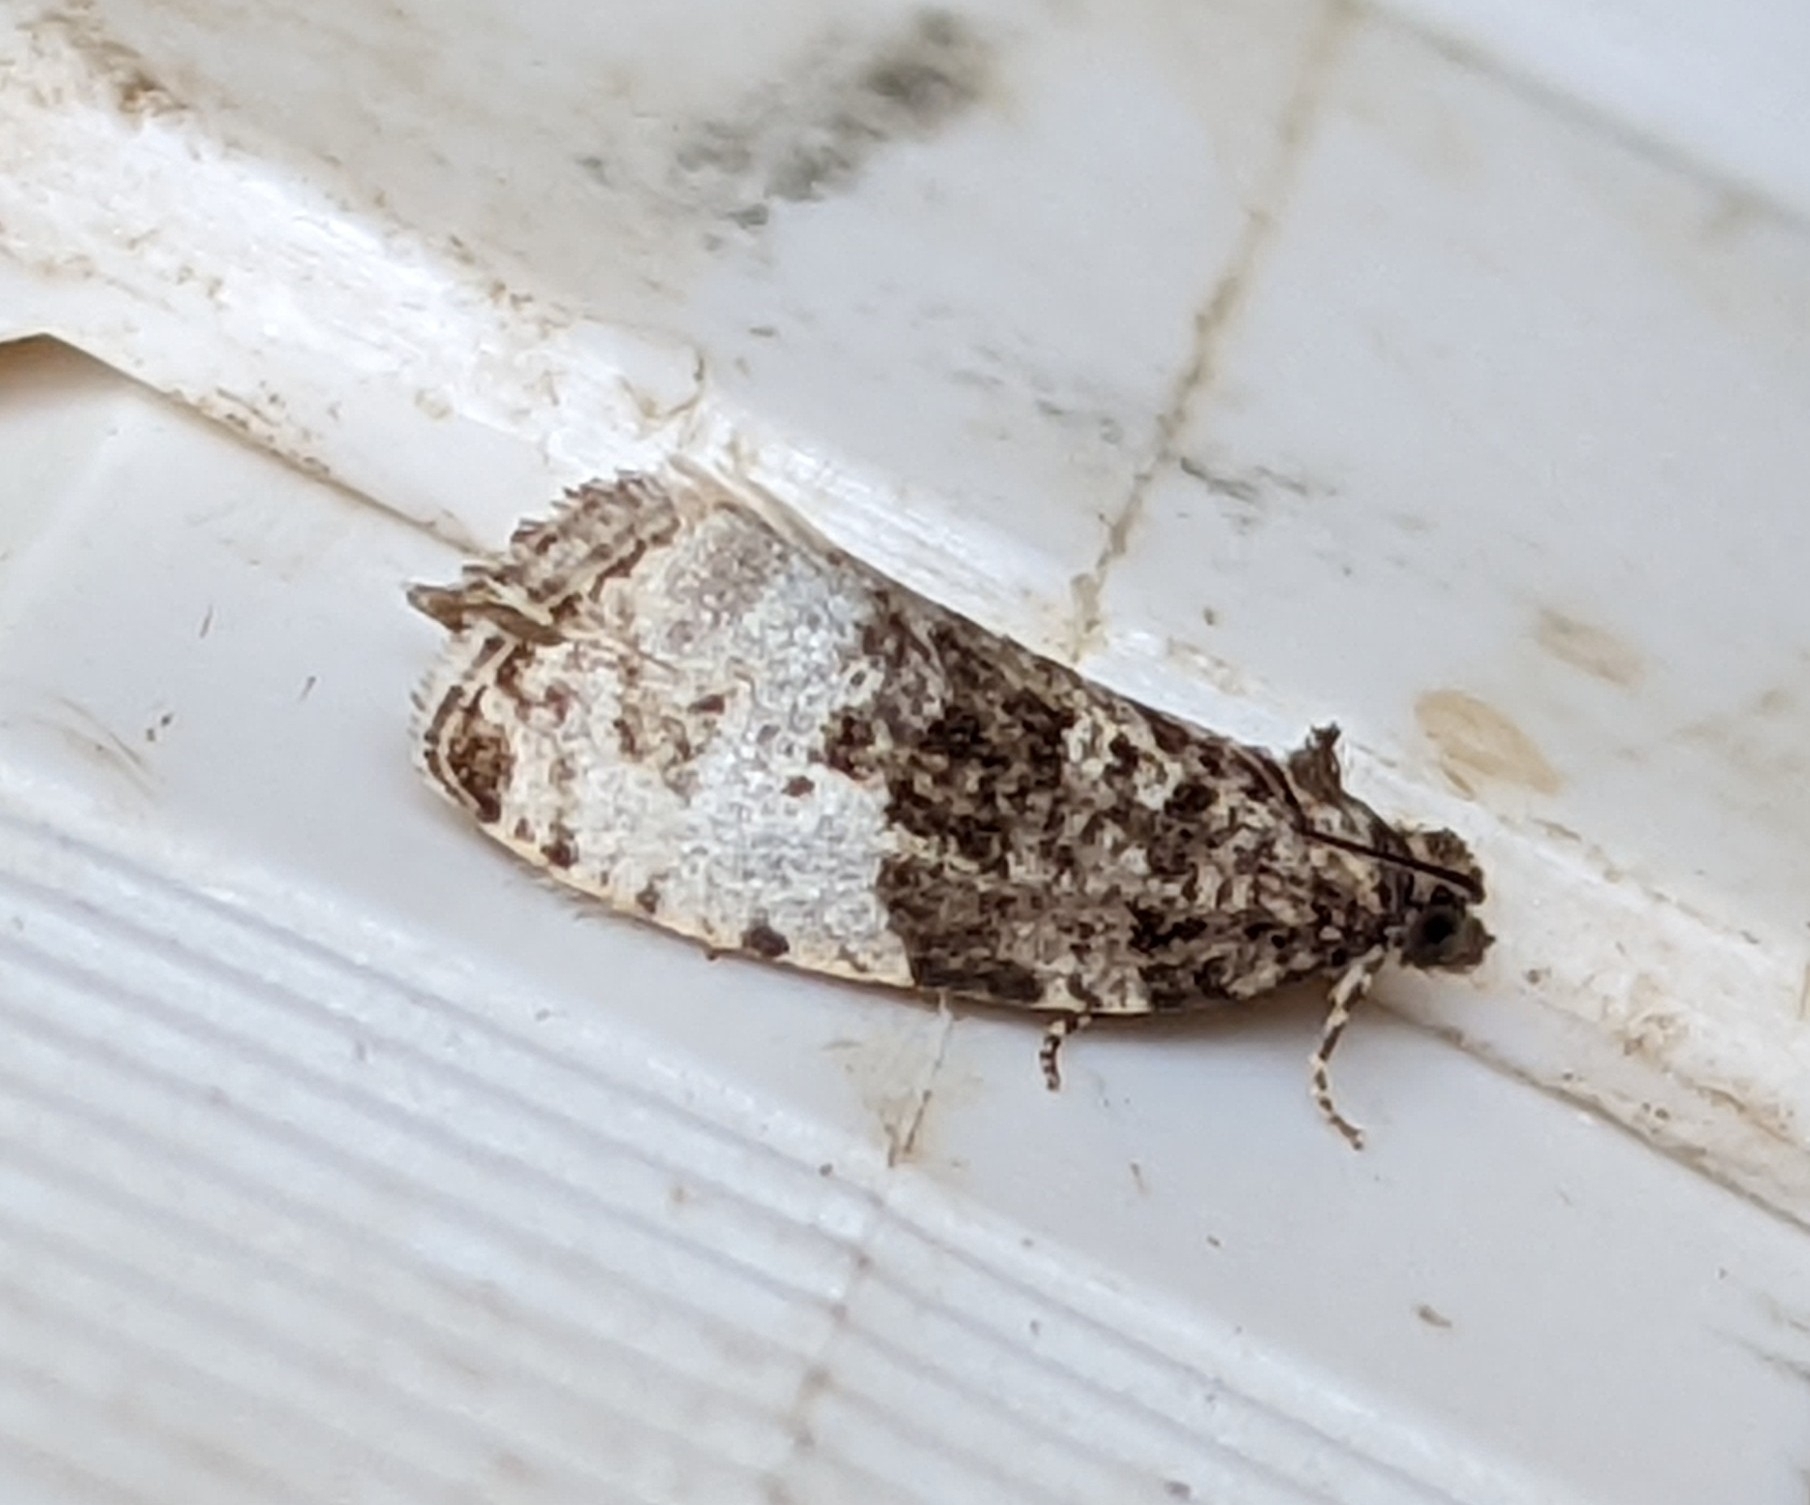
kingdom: Animalia
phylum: Arthropoda
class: Insecta
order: Lepidoptera
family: Tortricidae
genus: Hedya
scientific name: Hedya pruniana
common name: Plum tortrix
